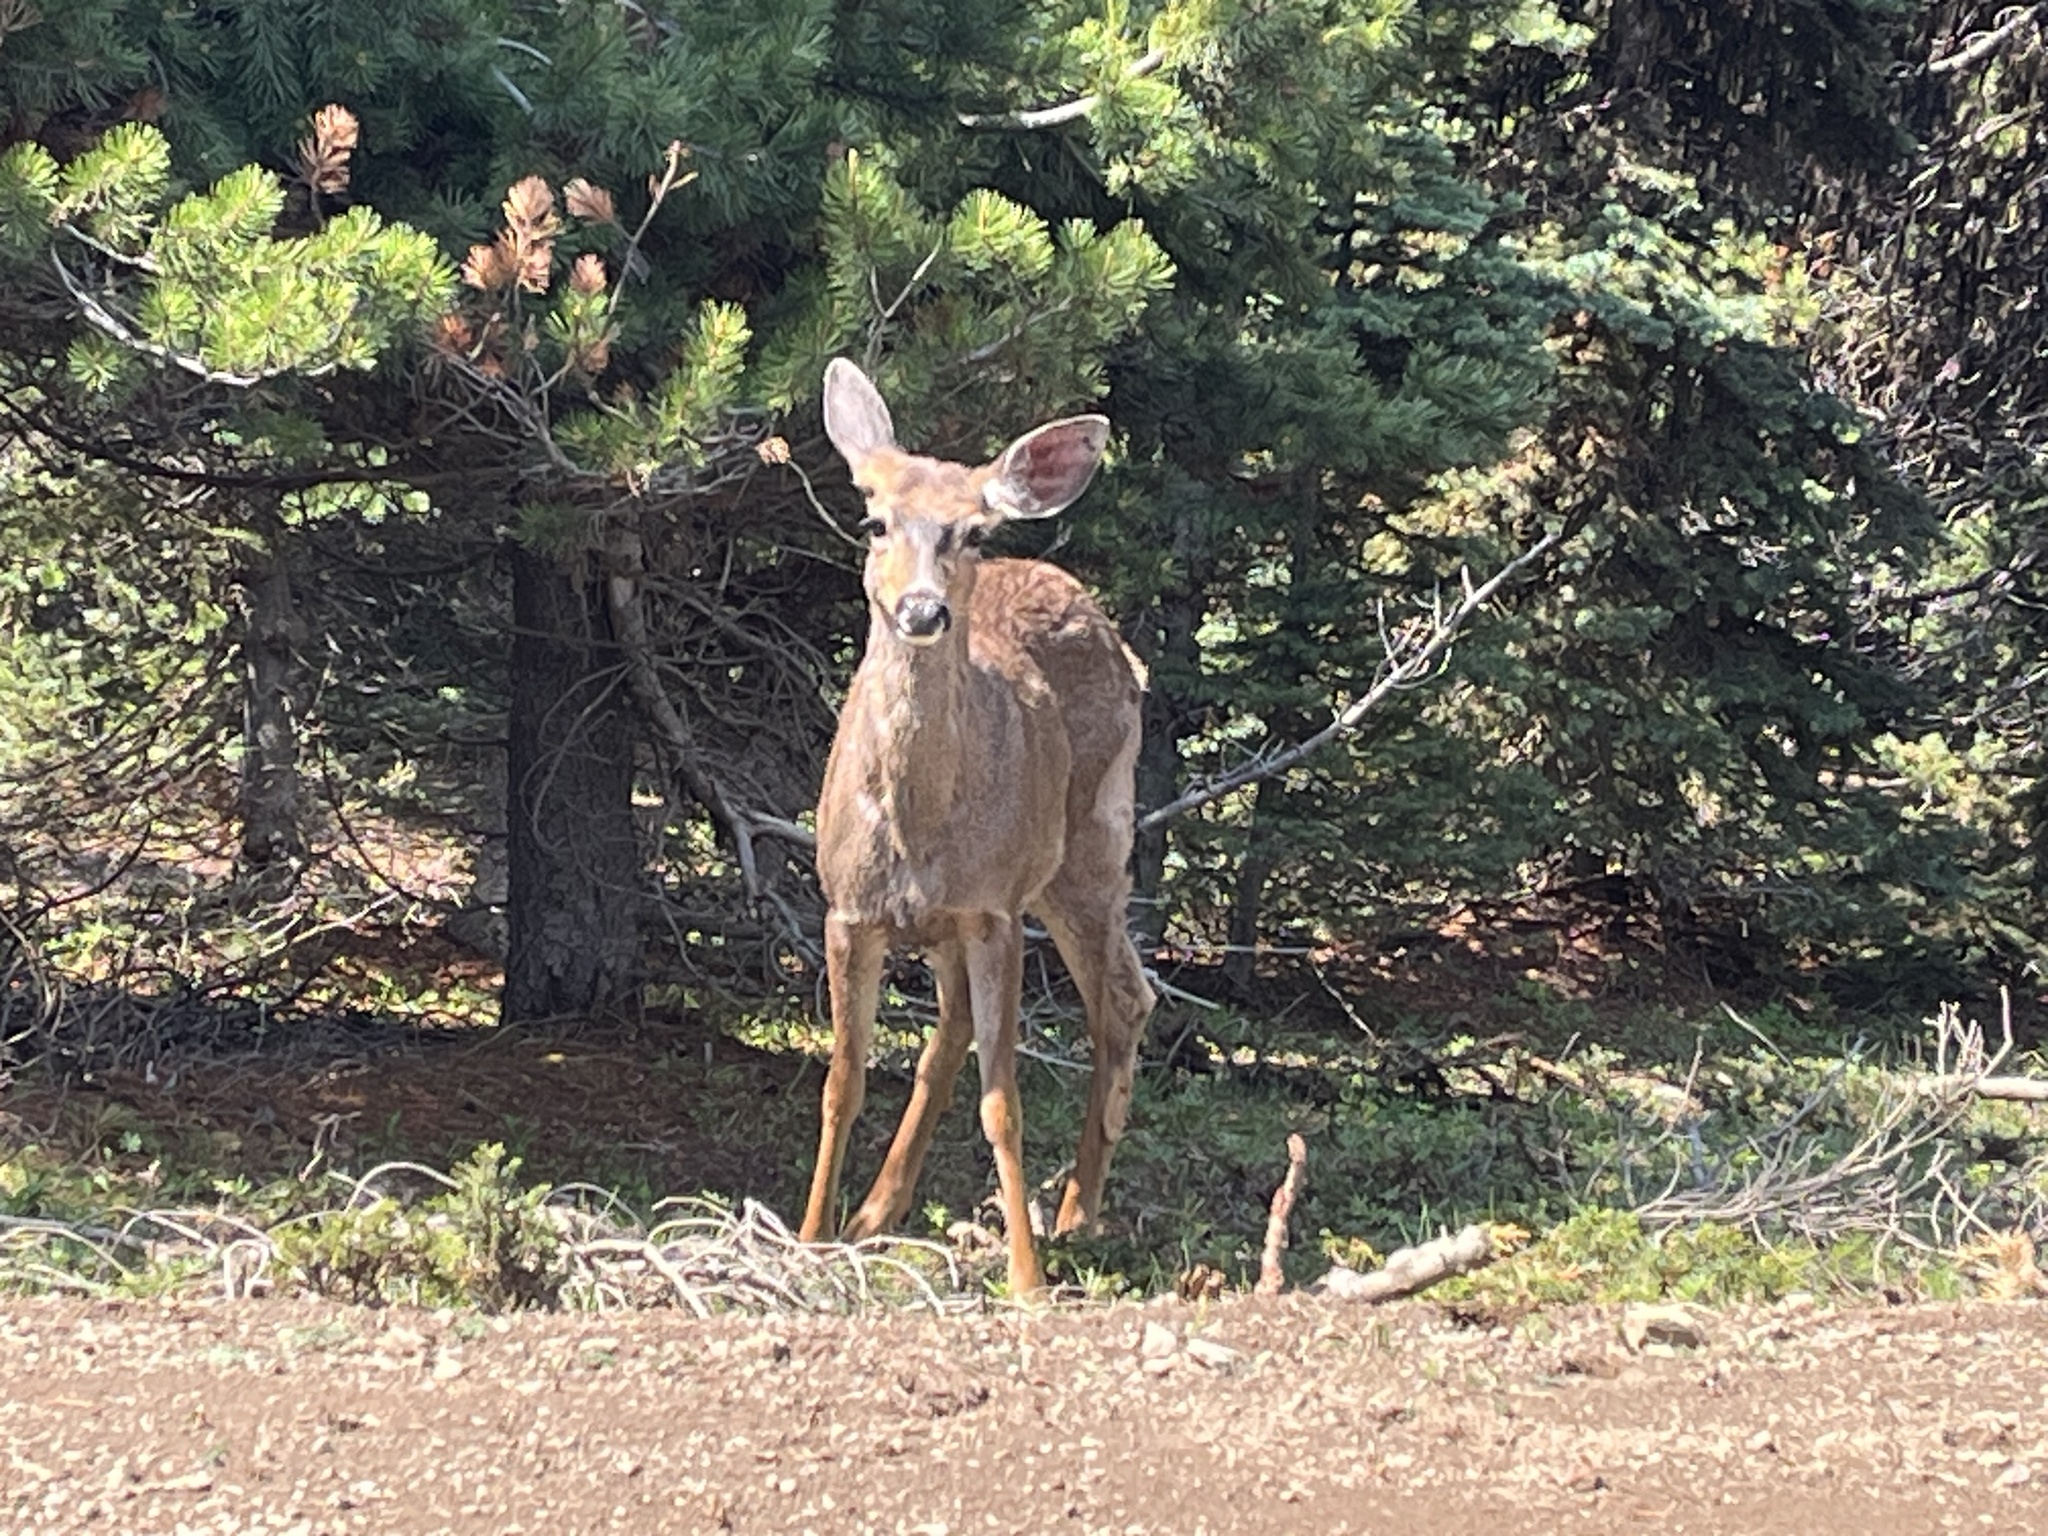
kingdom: Animalia
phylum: Chordata
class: Mammalia
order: Artiodactyla
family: Cervidae
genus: Odocoileus
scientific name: Odocoileus hemionus
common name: Mule deer
